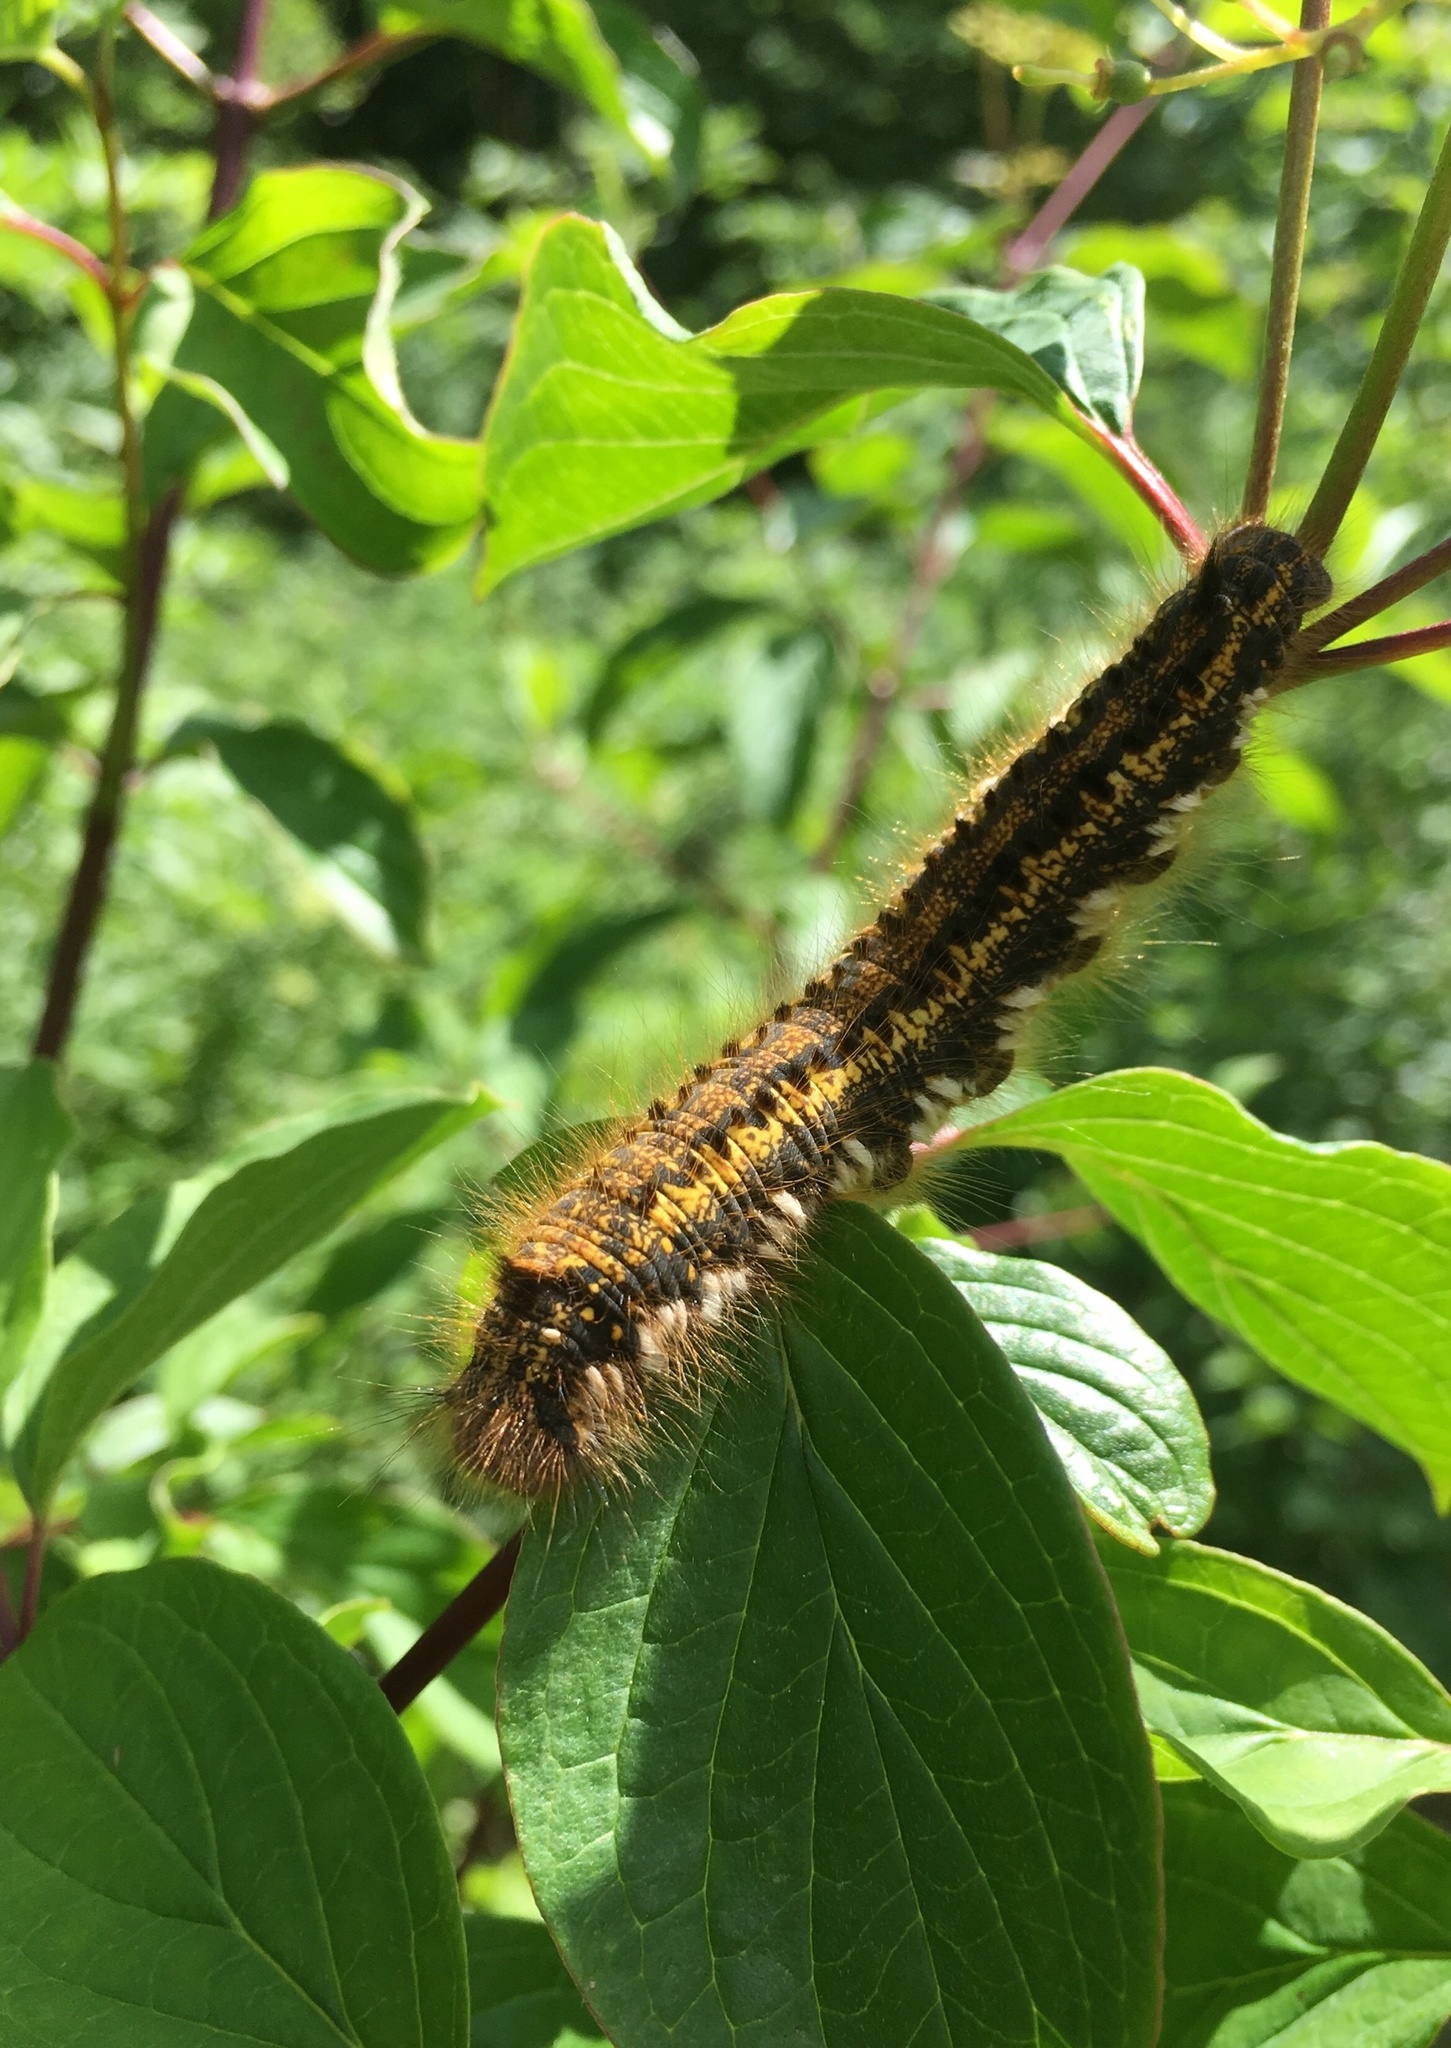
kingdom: Animalia
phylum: Arthropoda
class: Insecta
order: Lepidoptera
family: Lasiocampidae
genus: Euthrix
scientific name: Euthrix potatoria
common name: Drinker
